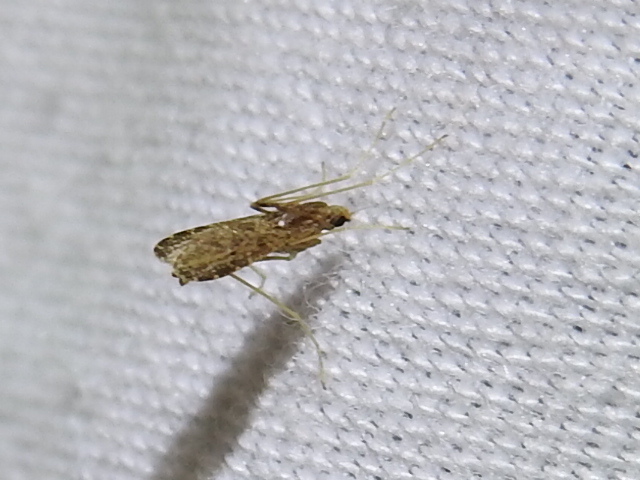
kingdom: Animalia
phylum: Arthropoda
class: Insecta
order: Diptera
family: Limoniidae
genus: Erioptera
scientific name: Erioptera tantilla
